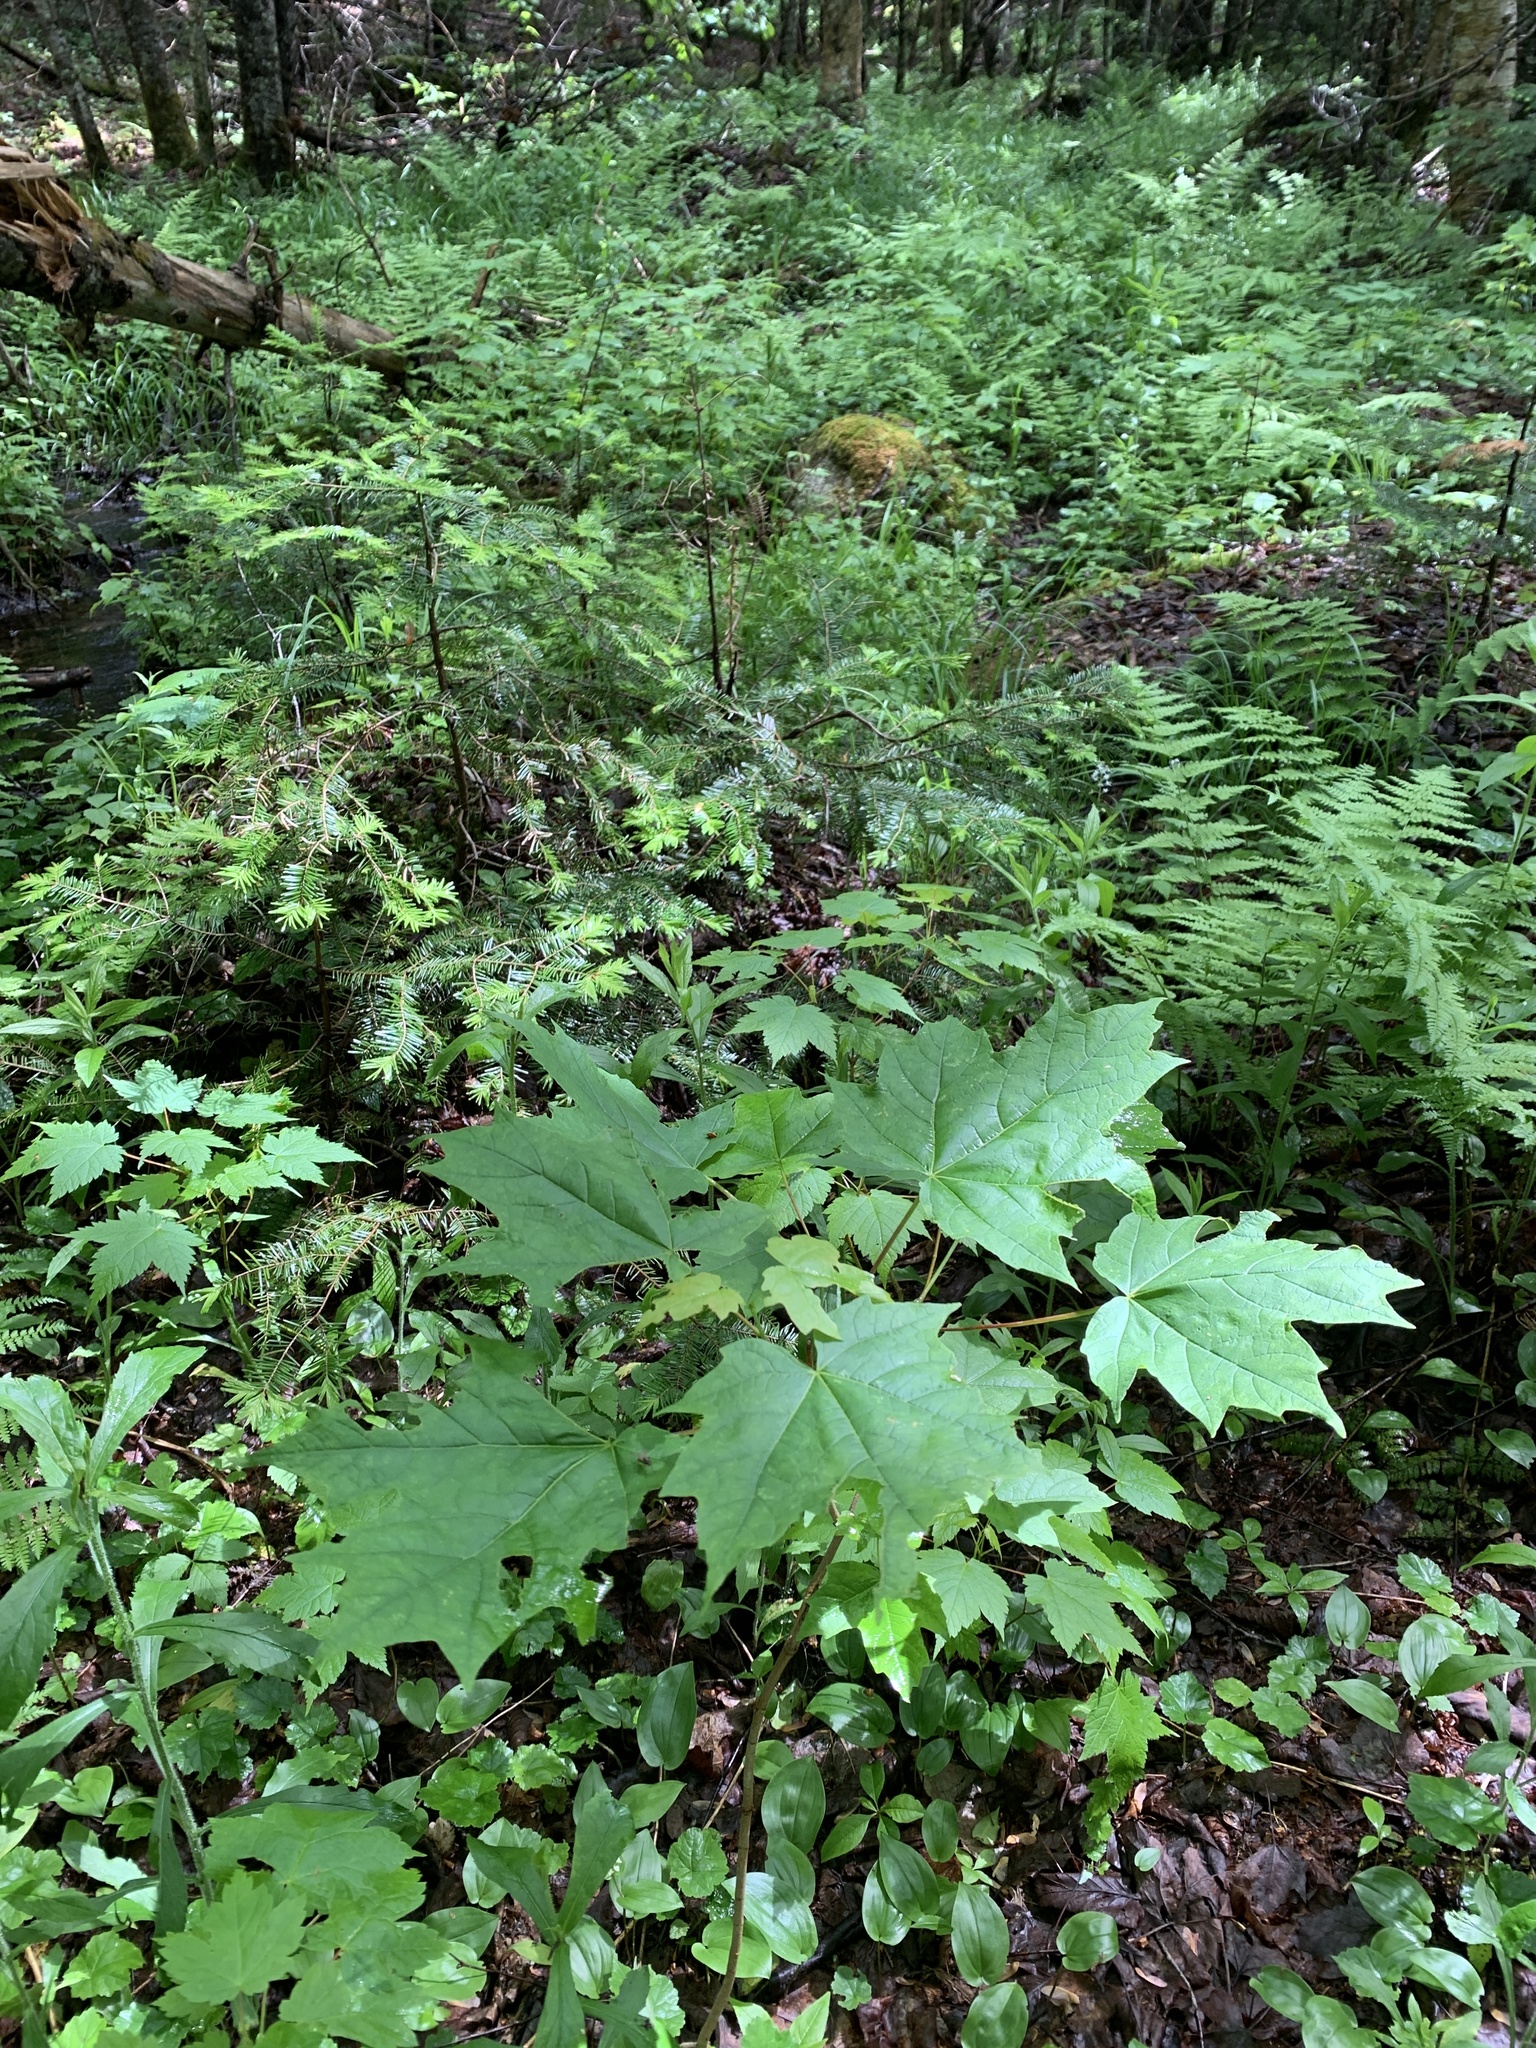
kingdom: Plantae
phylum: Tracheophyta
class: Magnoliopsida
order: Sapindales
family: Sapindaceae
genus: Acer
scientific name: Acer saccharum
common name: Sugar maple
